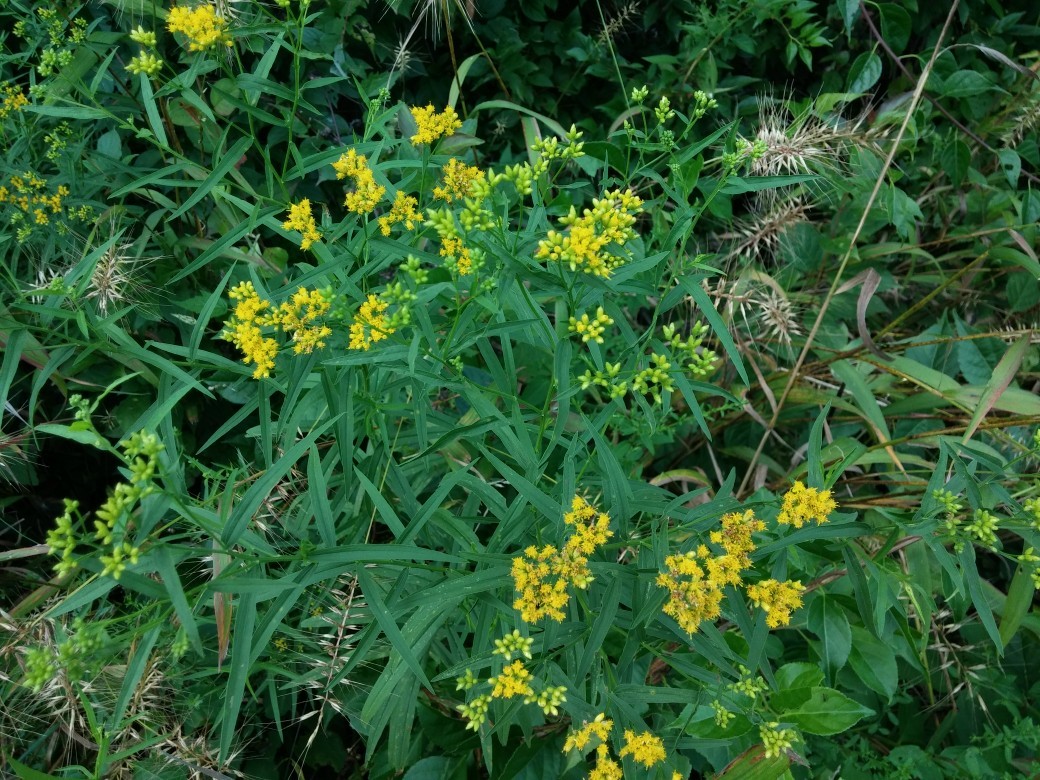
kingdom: Plantae
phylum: Tracheophyta
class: Magnoliopsida
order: Asterales
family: Asteraceae
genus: Euthamia
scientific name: Euthamia graminifolia
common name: Common goldentop
